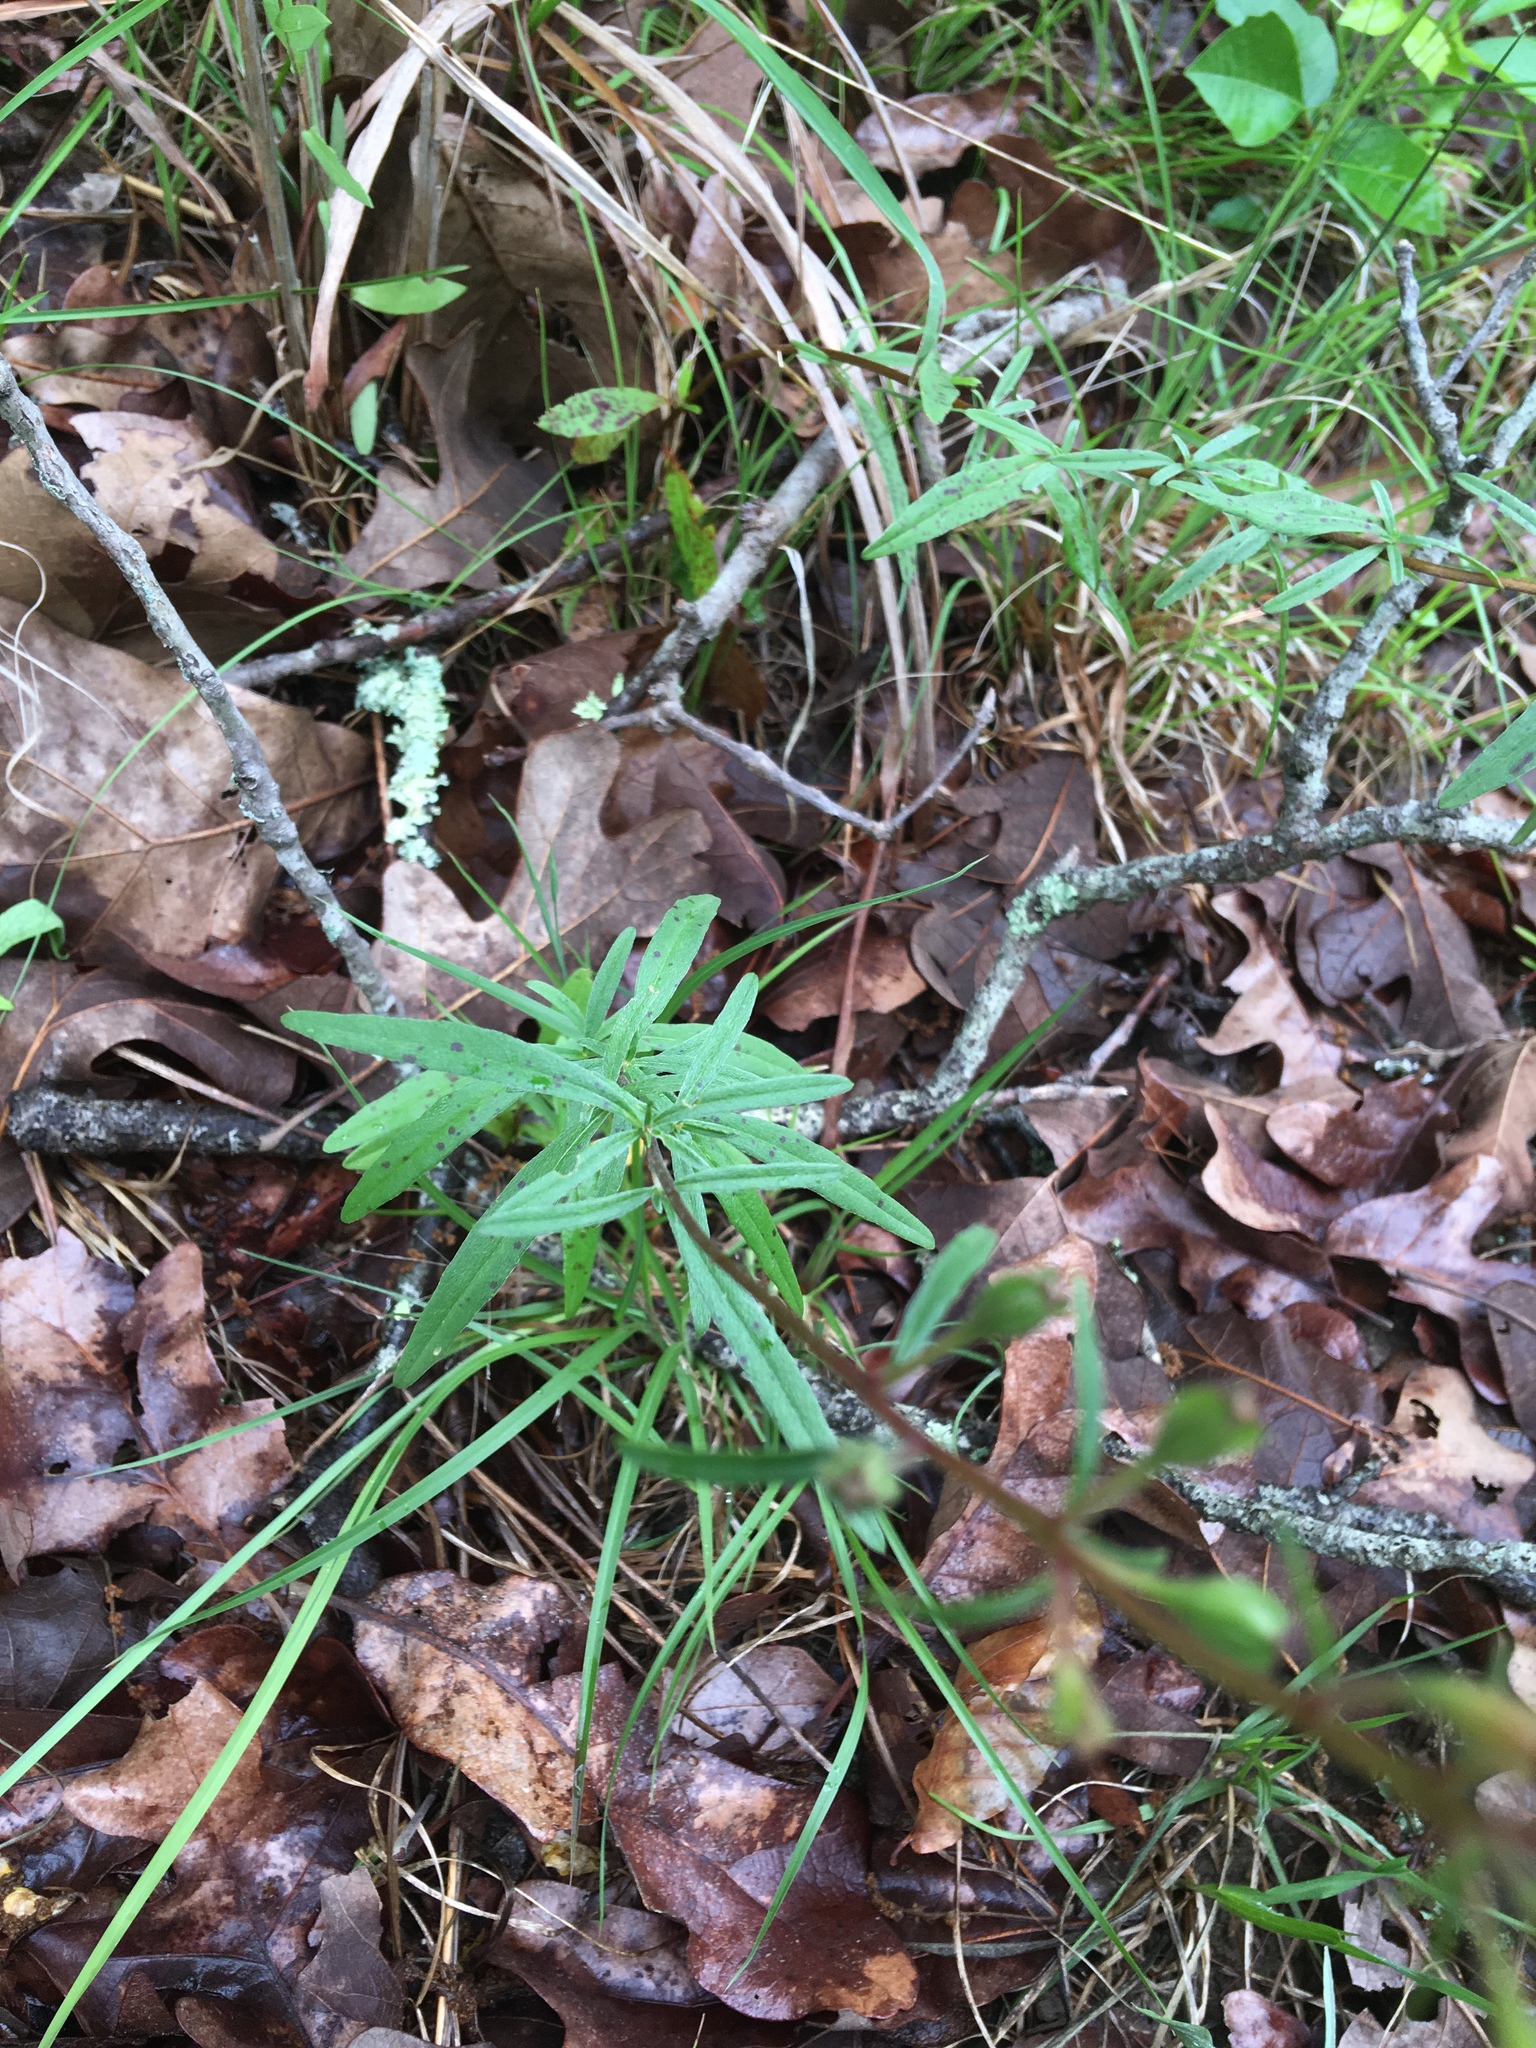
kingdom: Plantae
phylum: Tracheophyta
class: Magnoliopsida
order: Myrtales
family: Onagraceae
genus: Oenothera
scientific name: Oenothera fruticosa
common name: Southern sundrops
